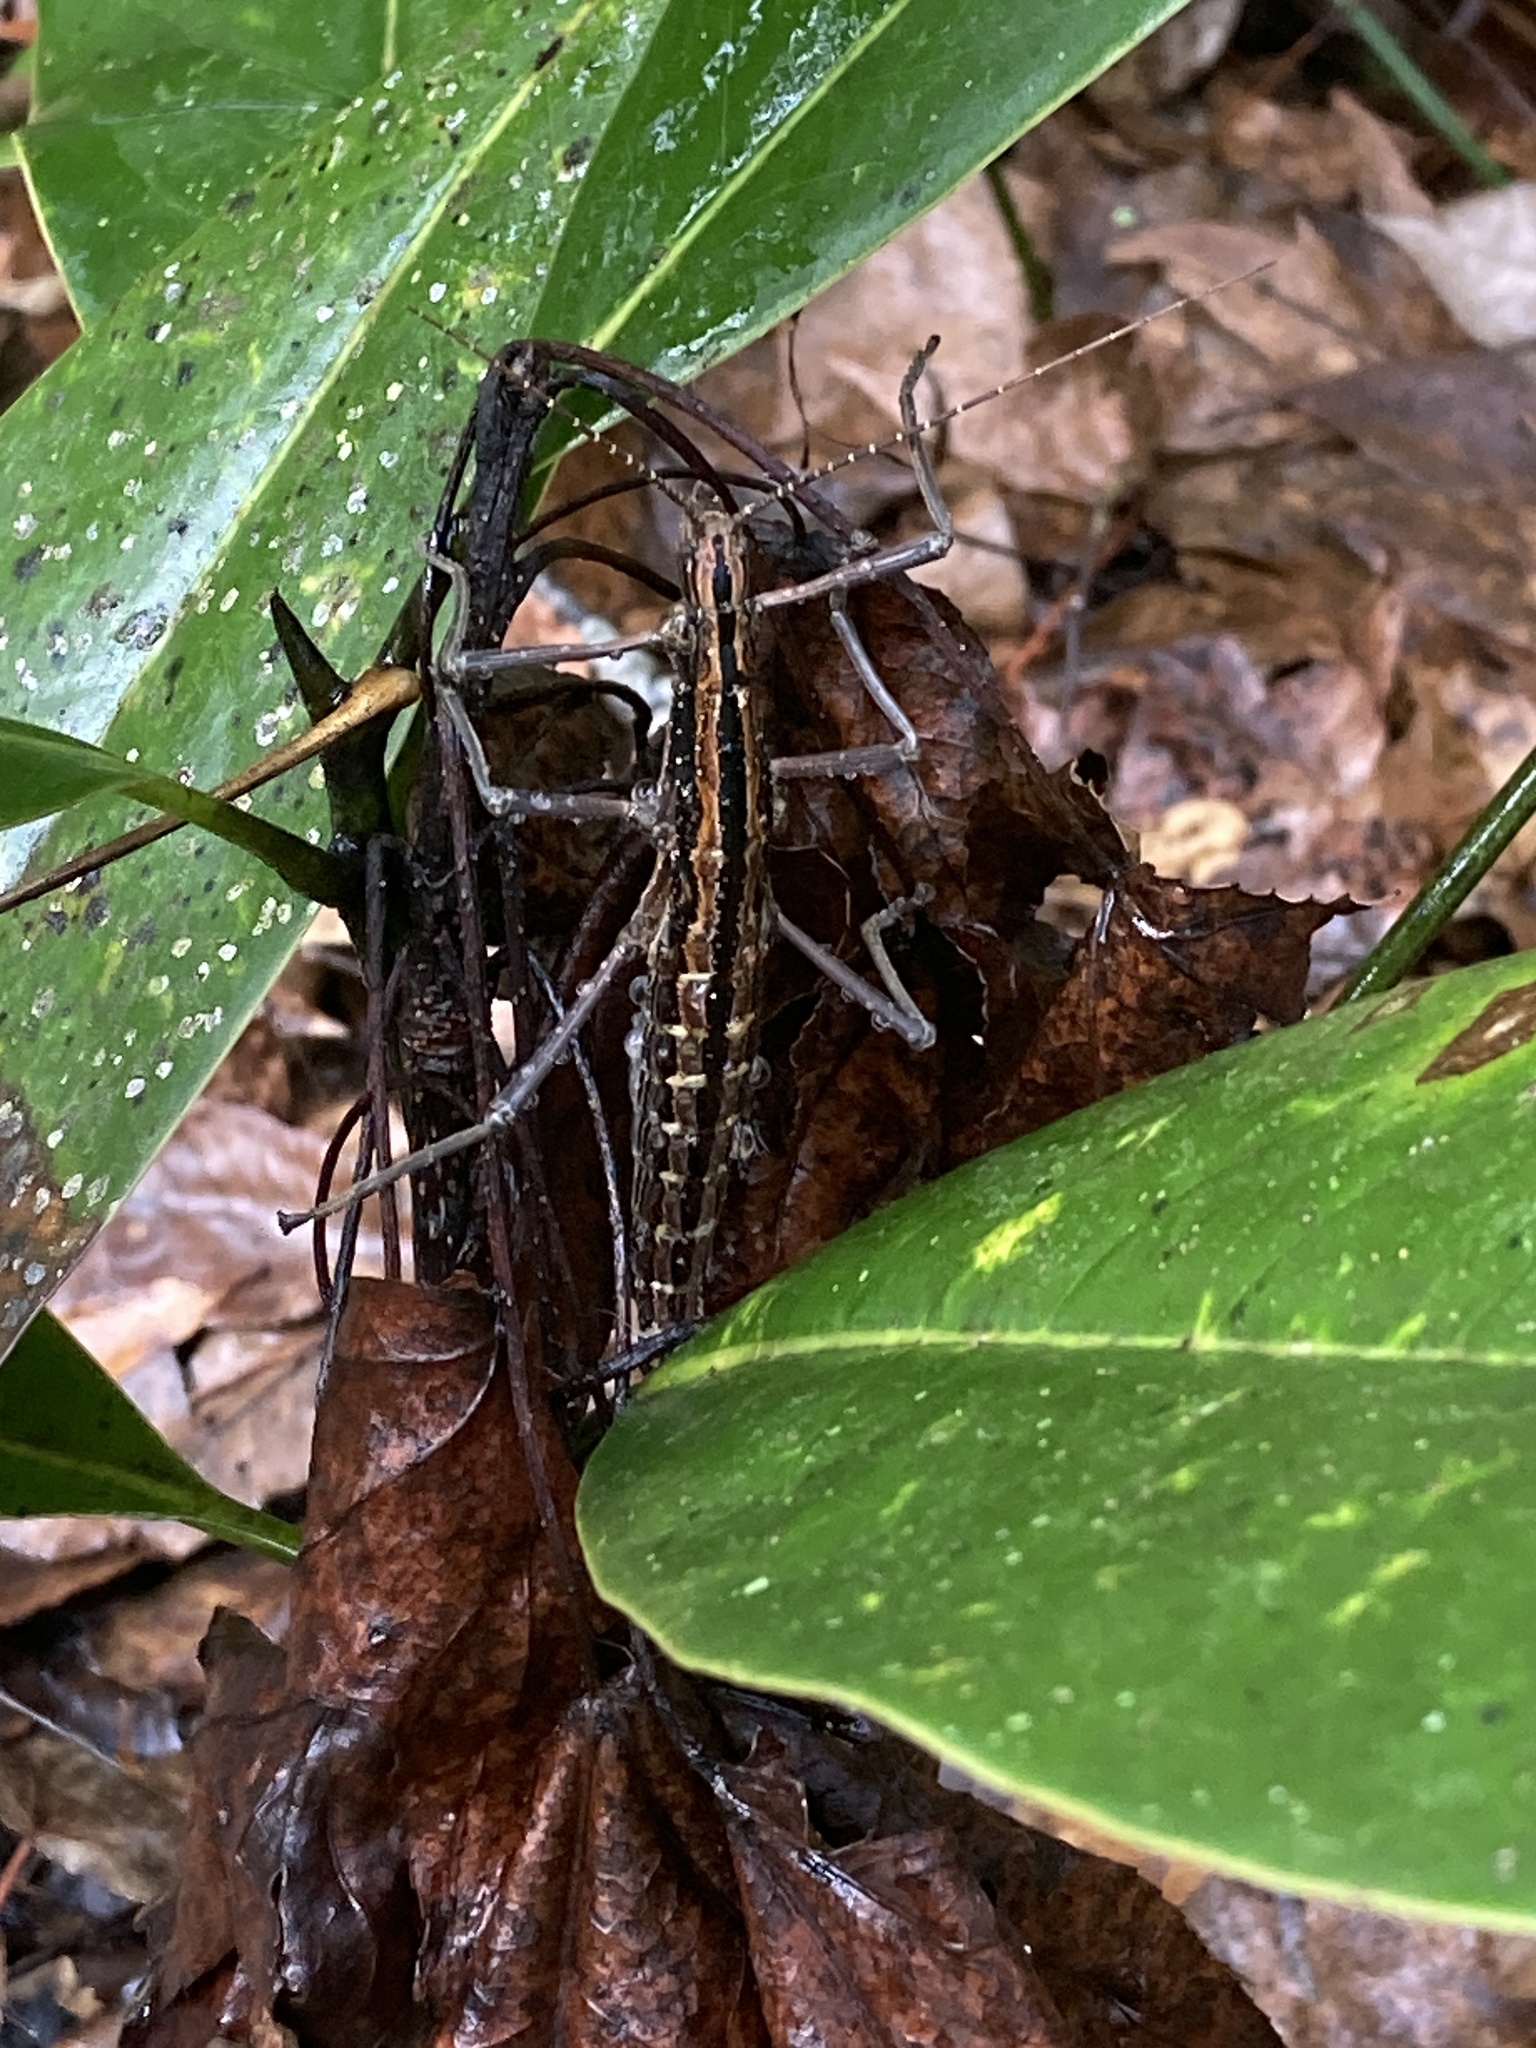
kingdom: Animalia
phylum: Arthropoda
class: Insecta
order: Phasmida
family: Pseudophasmatidae
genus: Anisomorpha
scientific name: Anisomorpha buprestoides
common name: Florida stick insect
